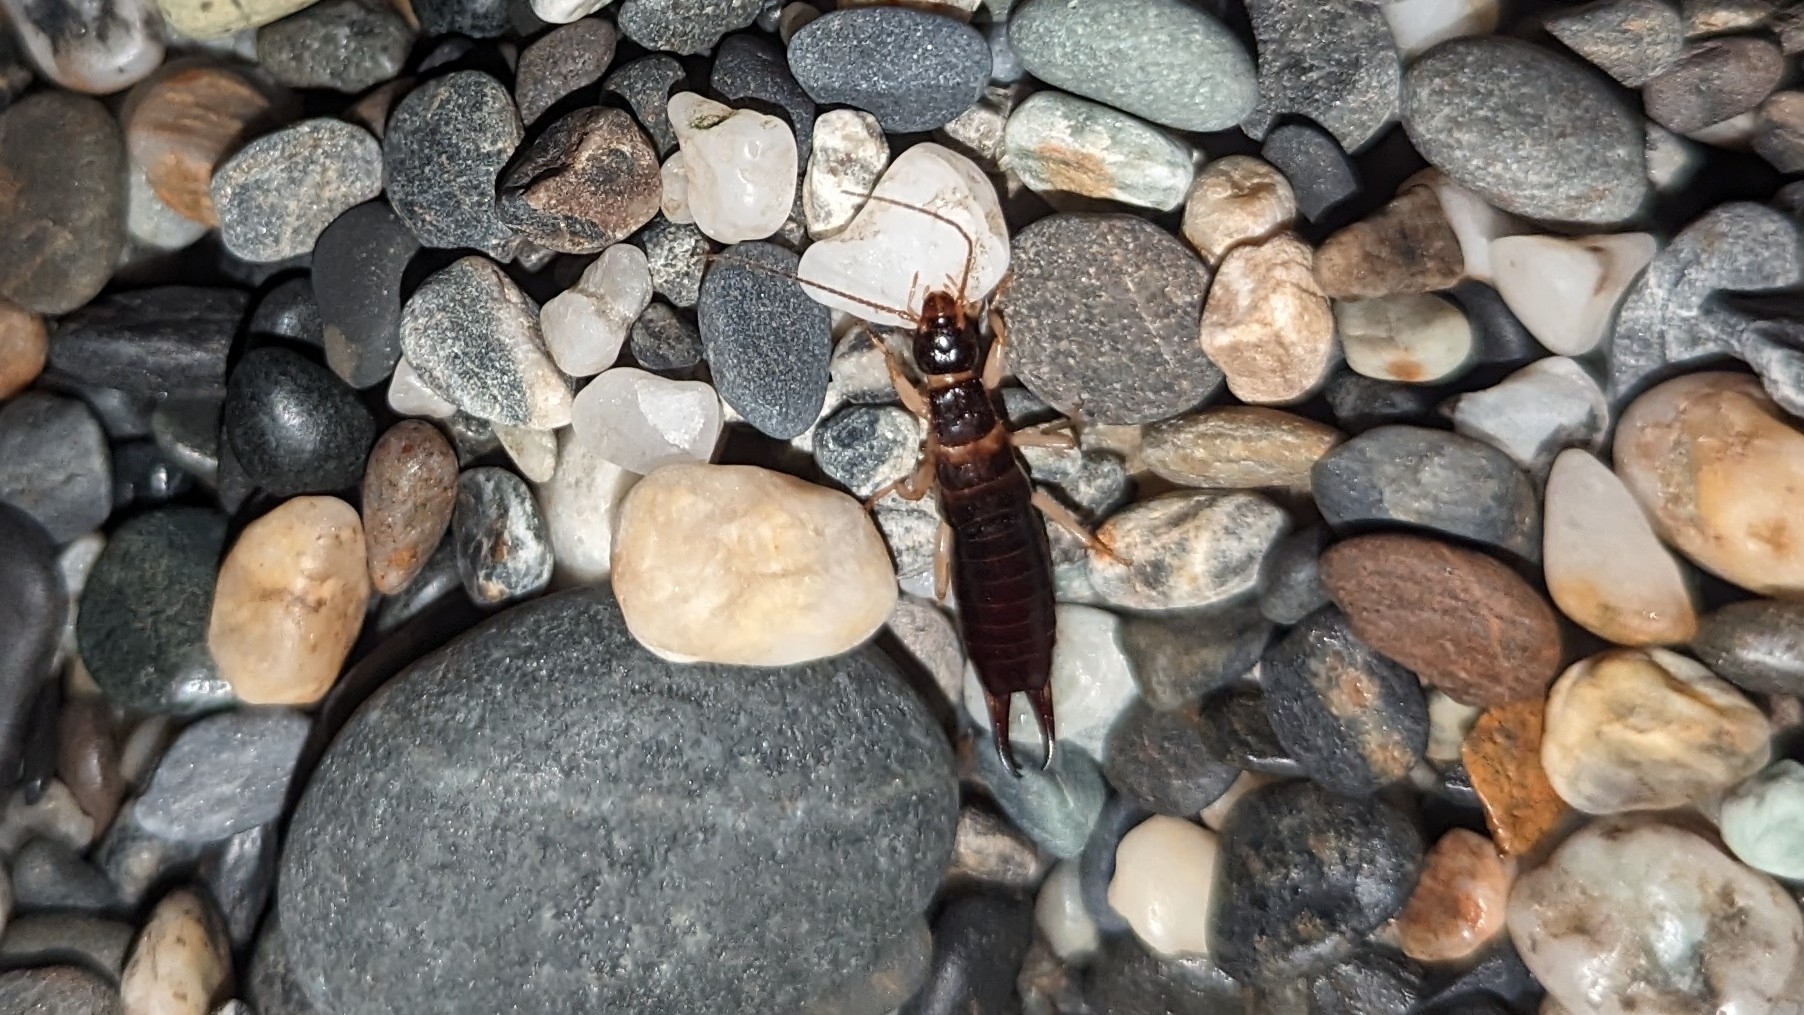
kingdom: Animalia
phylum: Arthropoda
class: Insecta
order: Dermaptera
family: Anisolabididae
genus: Anisolabis
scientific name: Anisolabis maritima
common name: Maritime earwig
